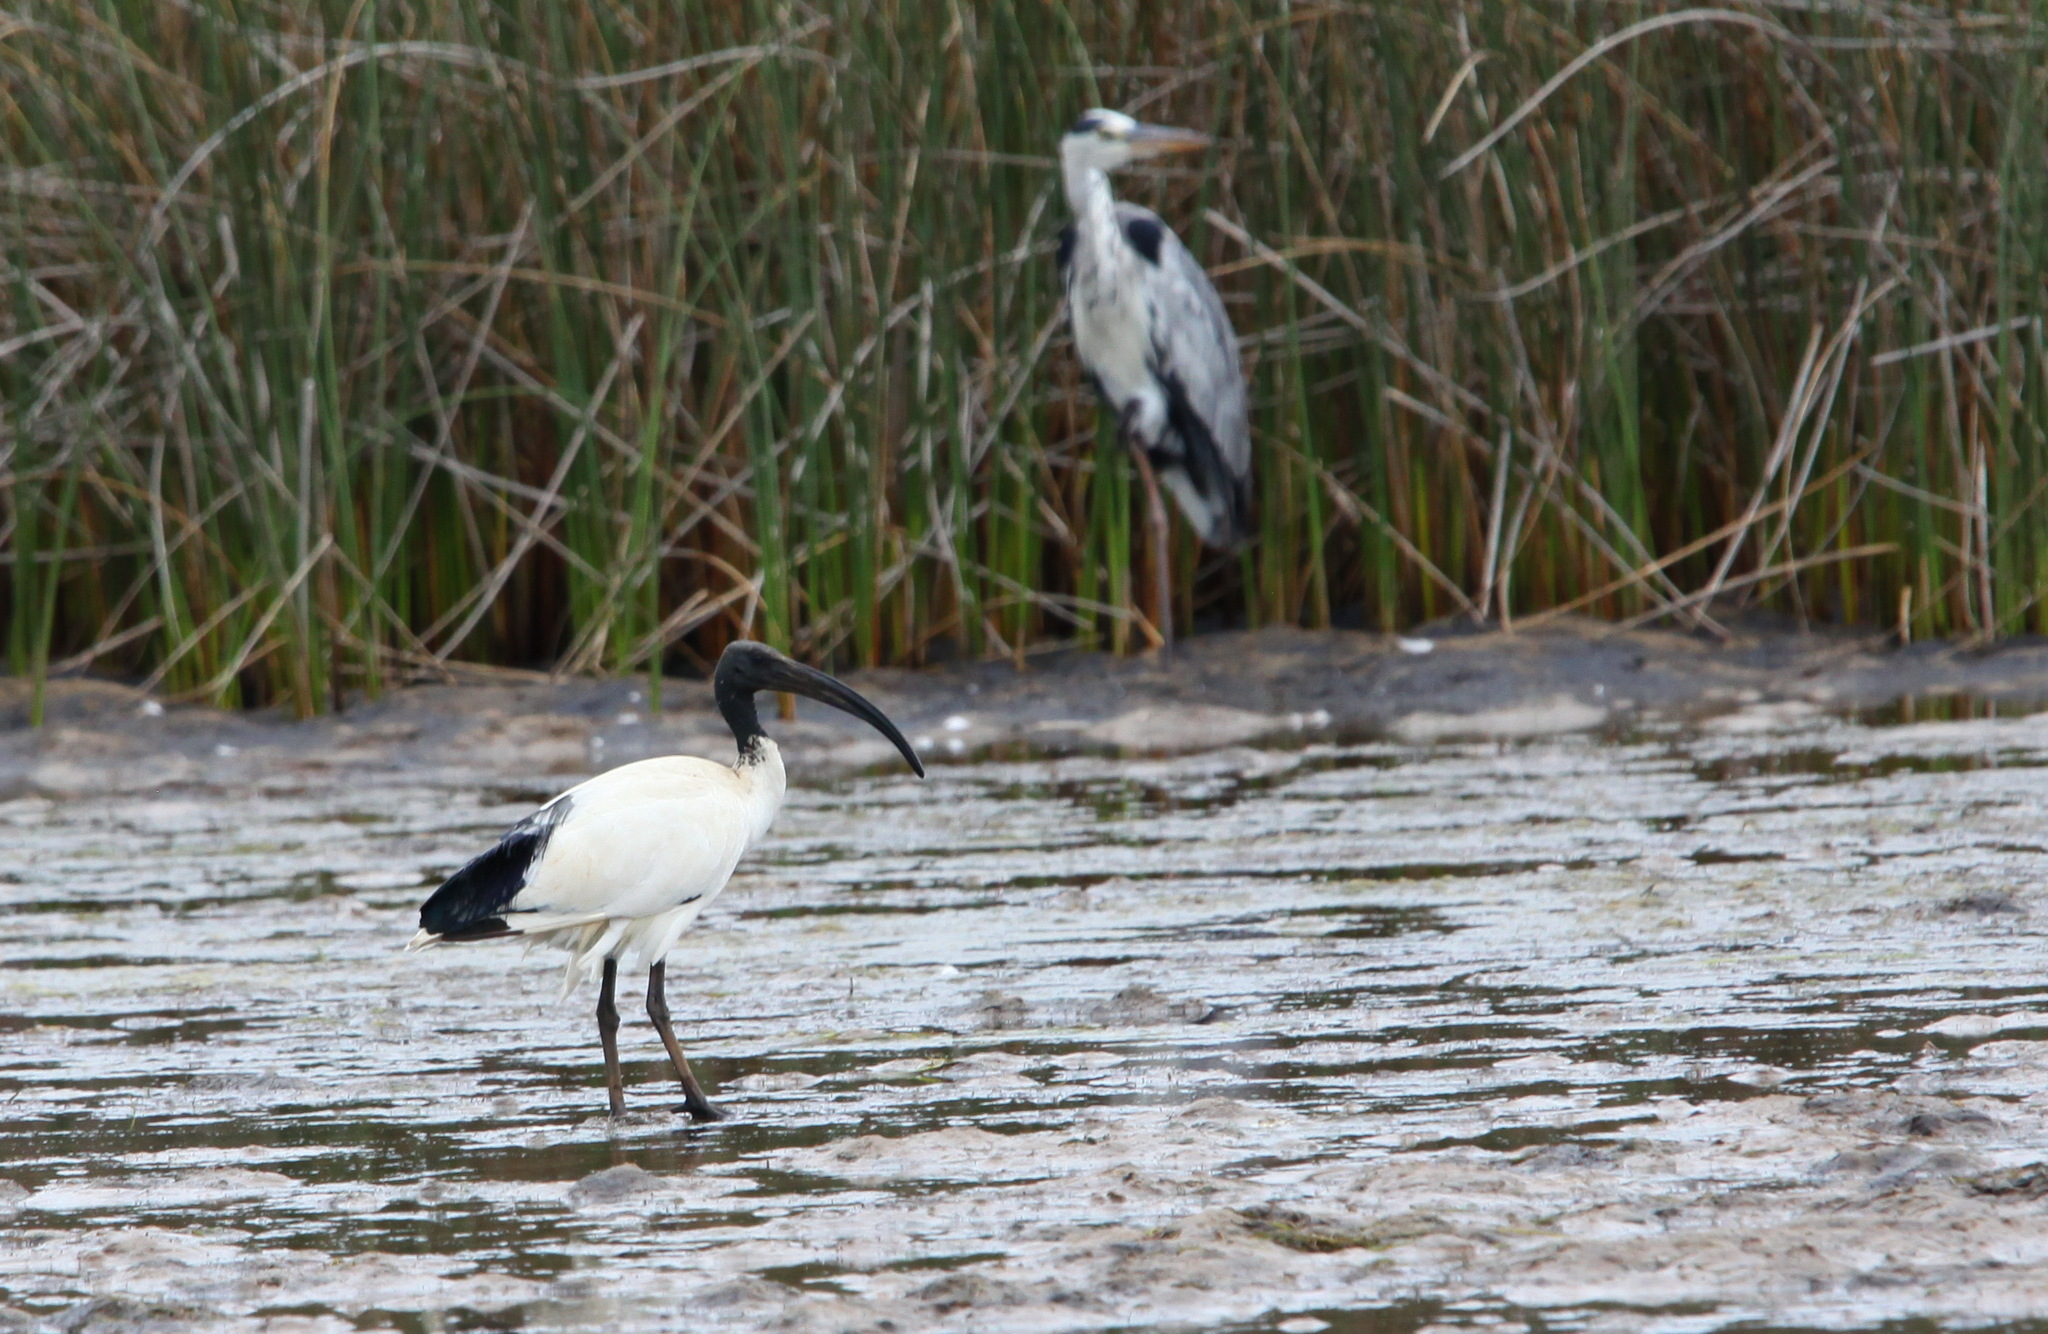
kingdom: Animalia
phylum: Chordata
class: Aves
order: Pelecaniformes
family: Threskiornithidae
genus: Threskiornis
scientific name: Threskiornis aethiopicus
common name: Sacred ibis
